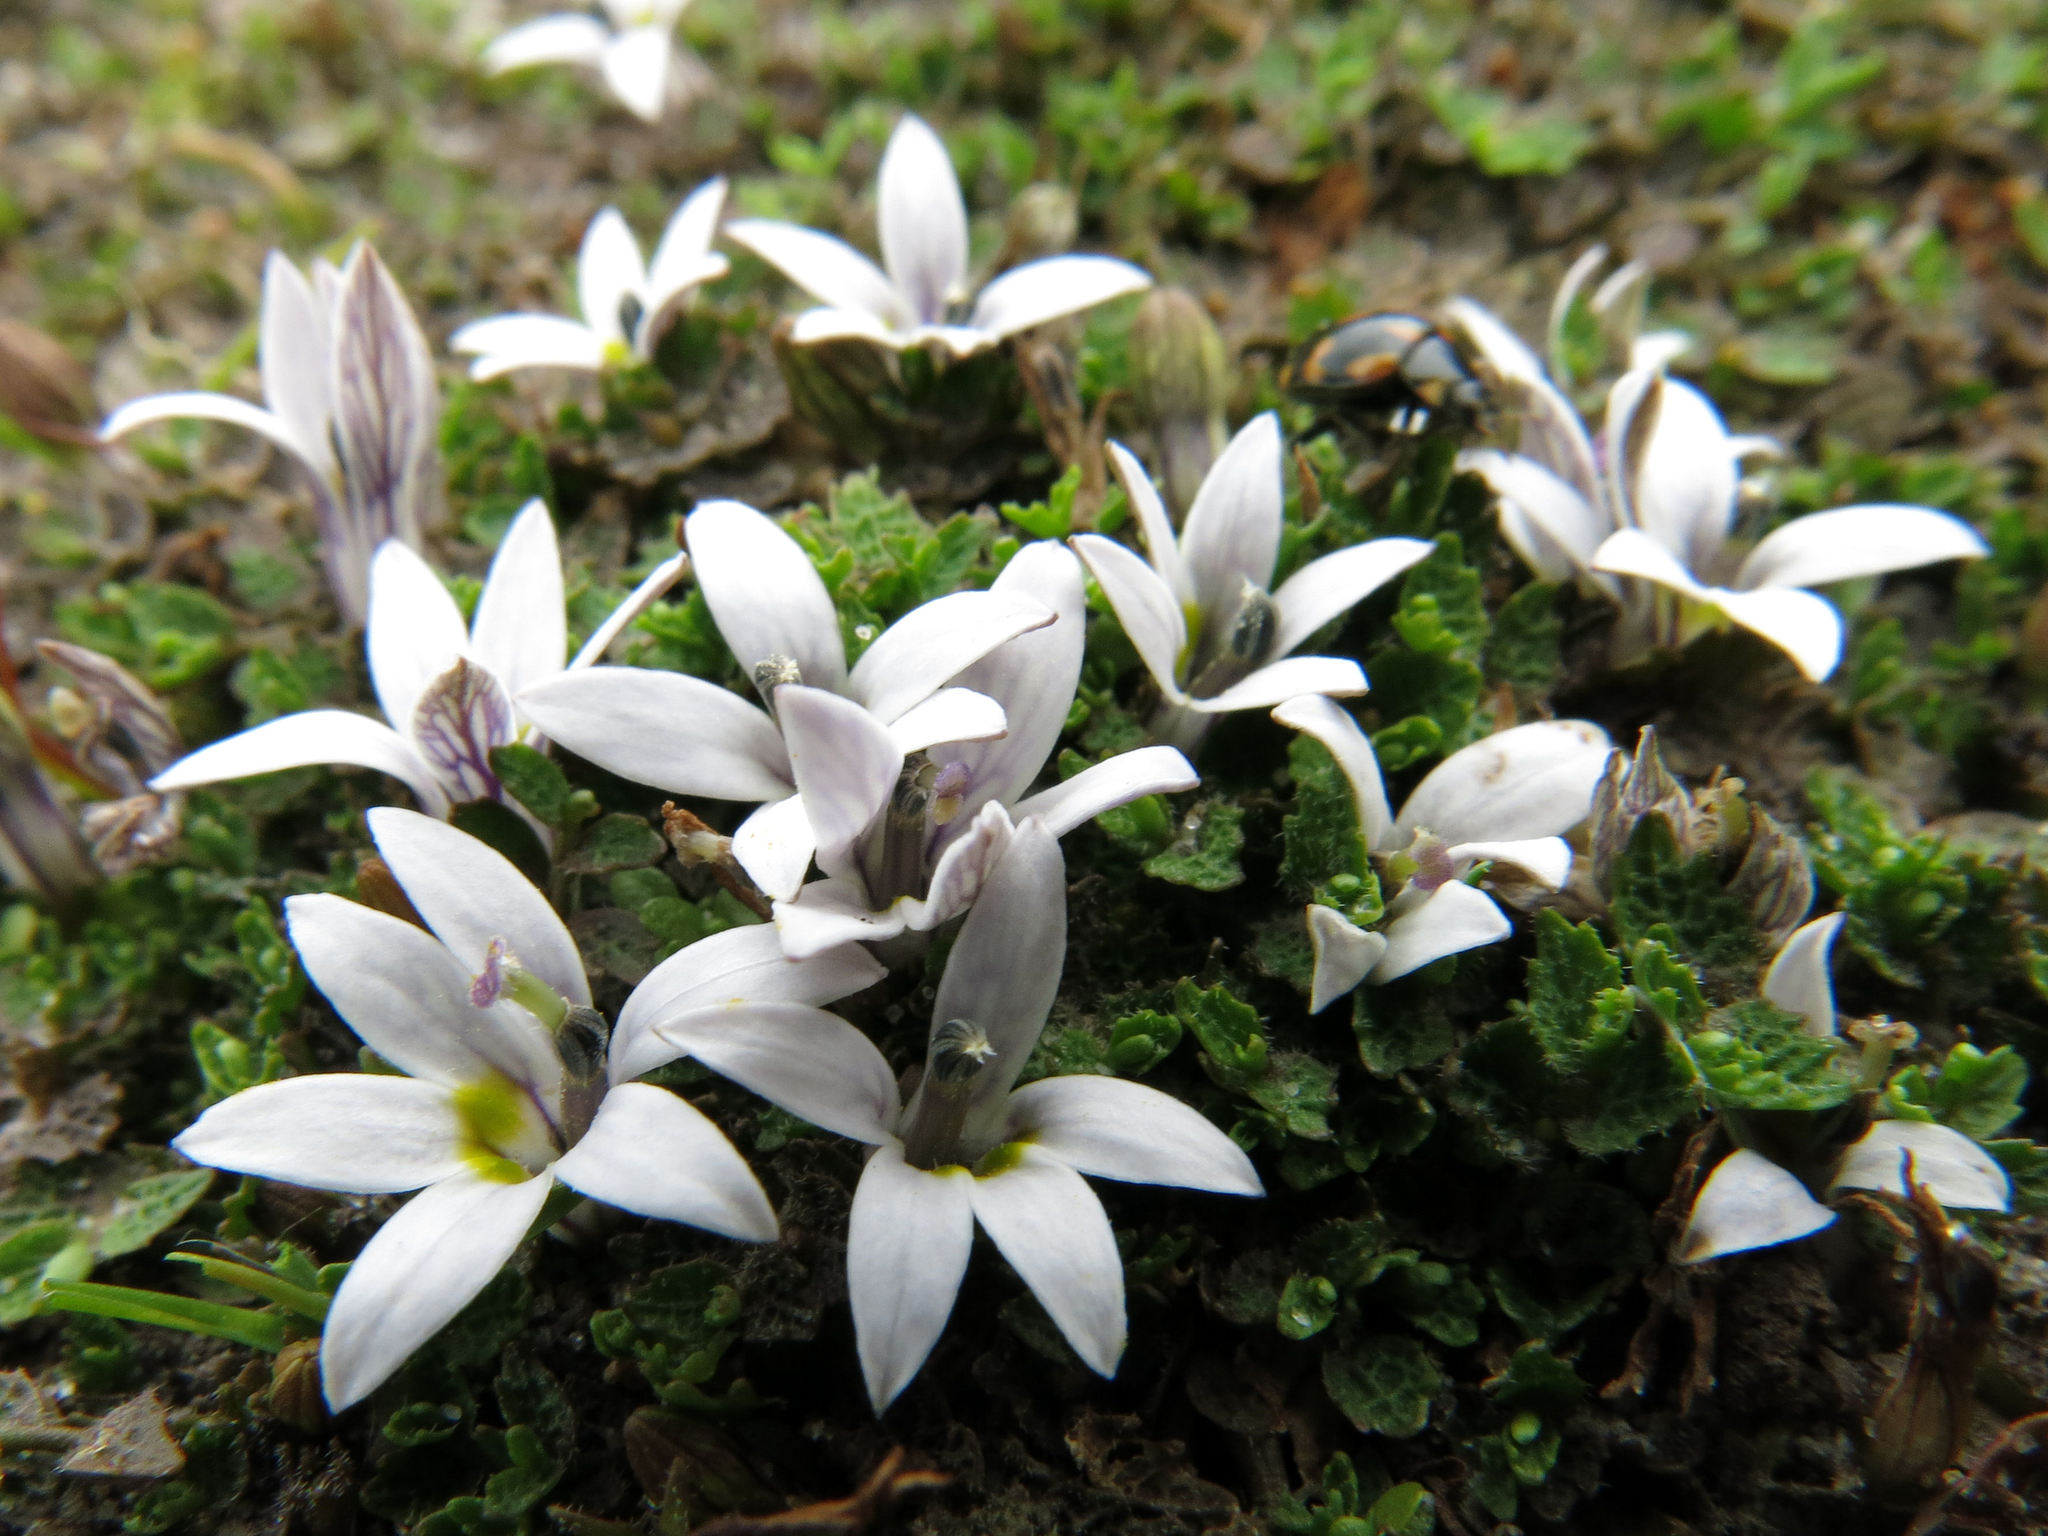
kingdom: Plantae
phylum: Tracheophyta
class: Magnoliopsida
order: Asterales
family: Campanulaceae
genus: Lobelia
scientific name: Lobelia perpusilla
